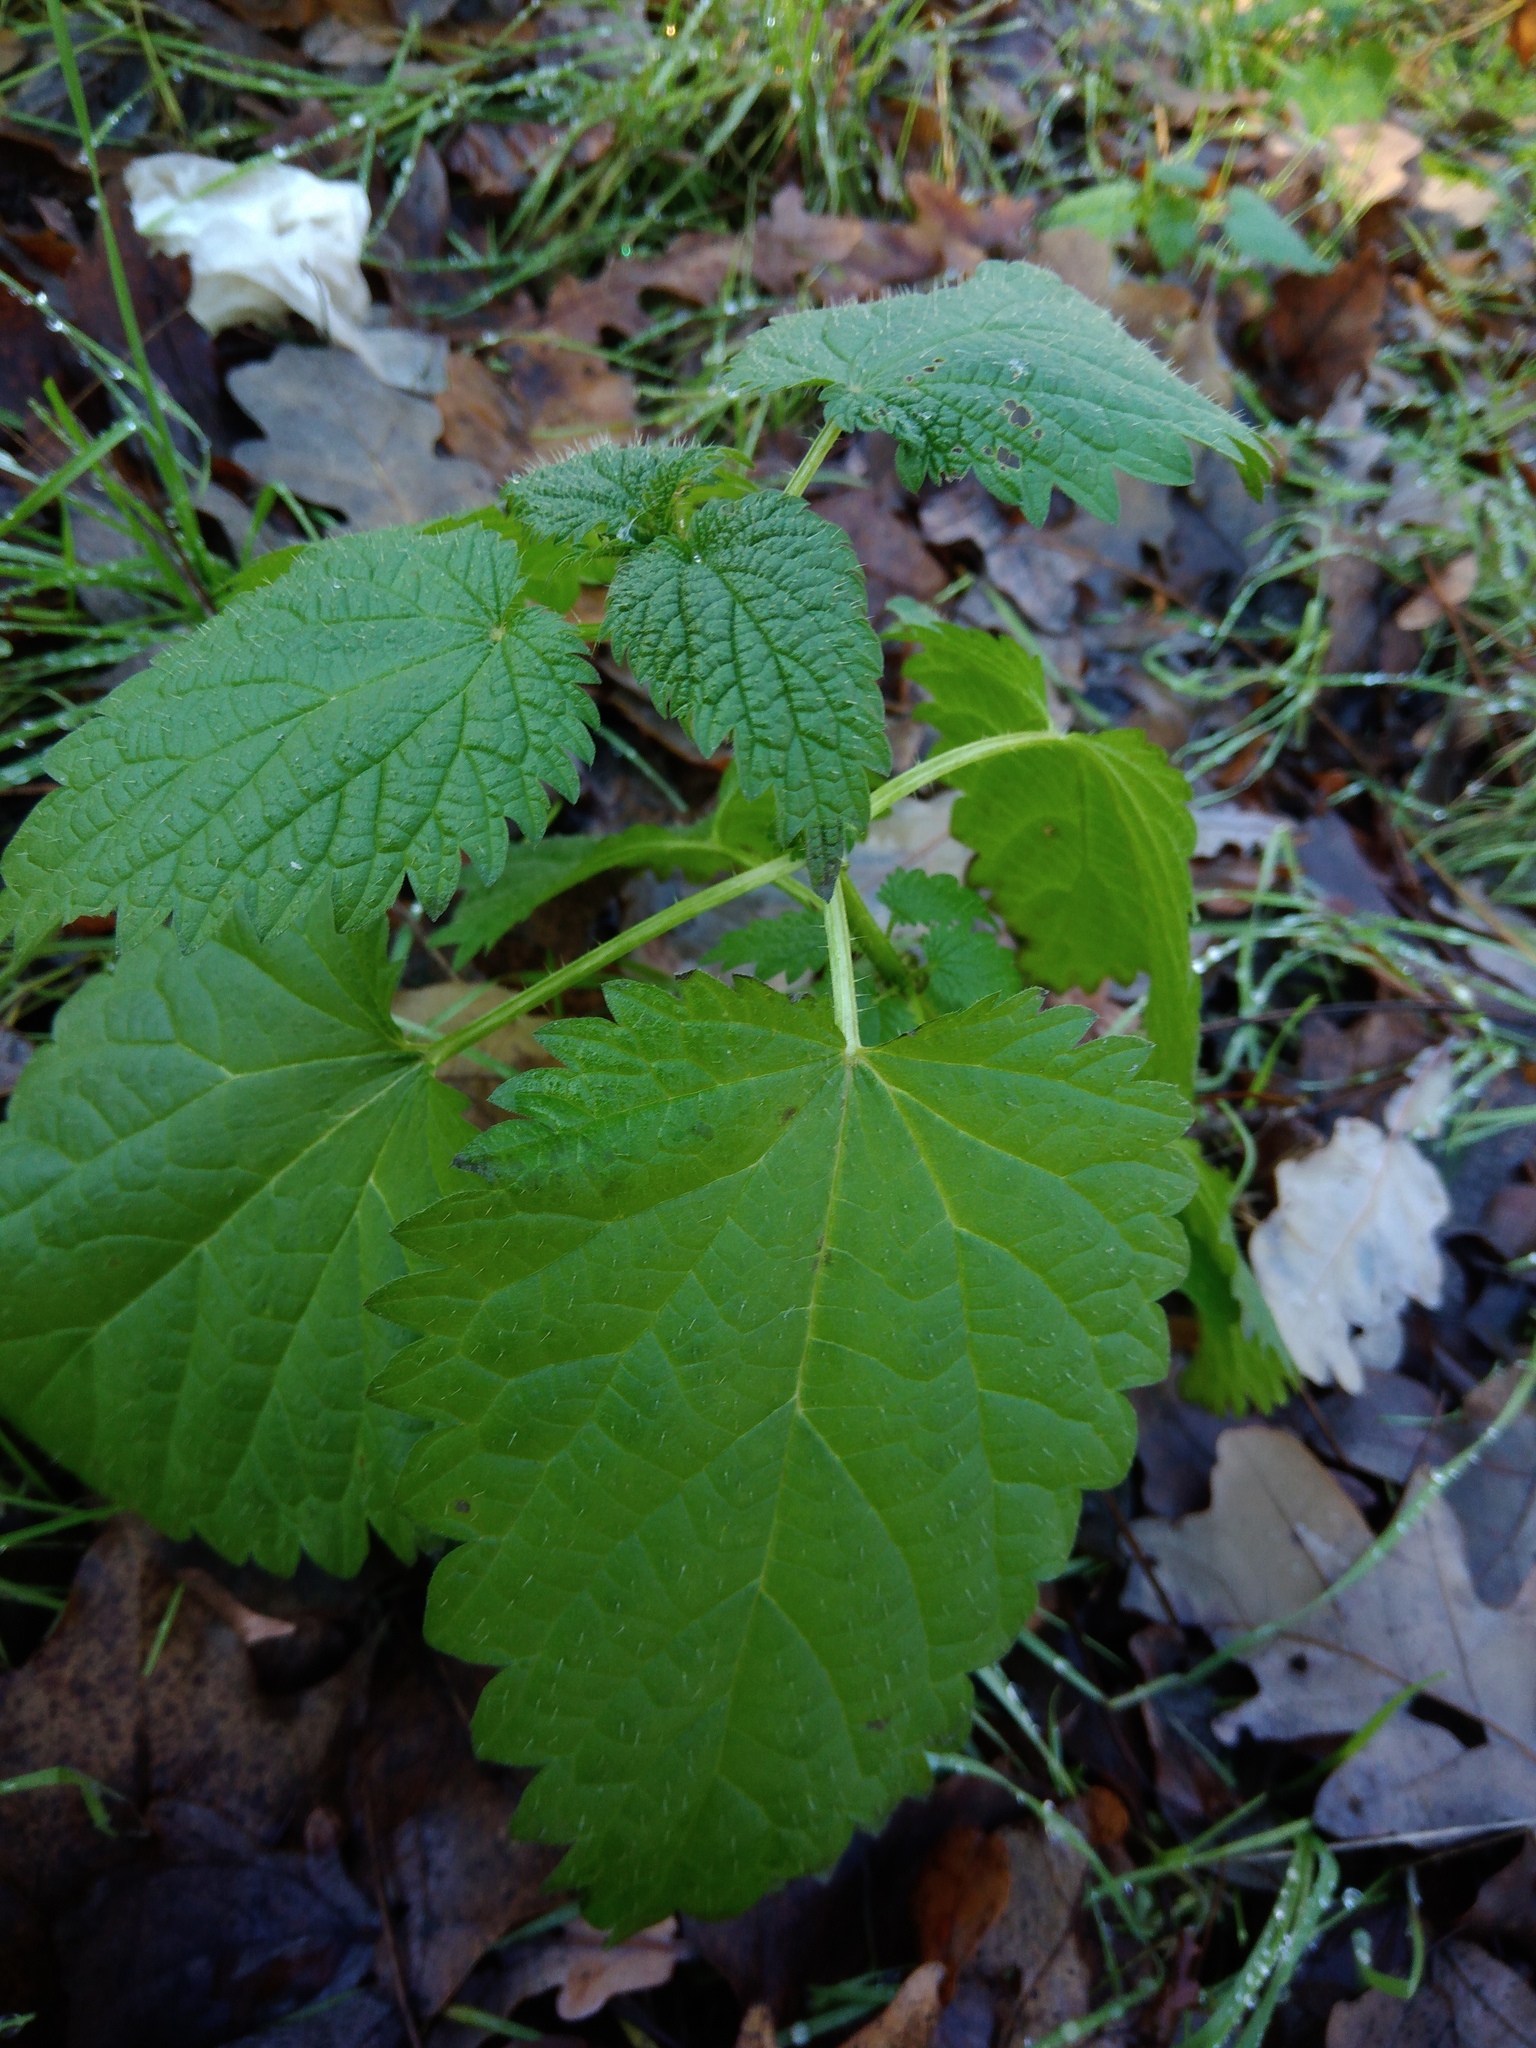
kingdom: Plantae
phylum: Tracheophyta
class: Magnoliopsida
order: Rosales
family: Urticaceae
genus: Urtica
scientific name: Urtica dioica
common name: Common nettle
